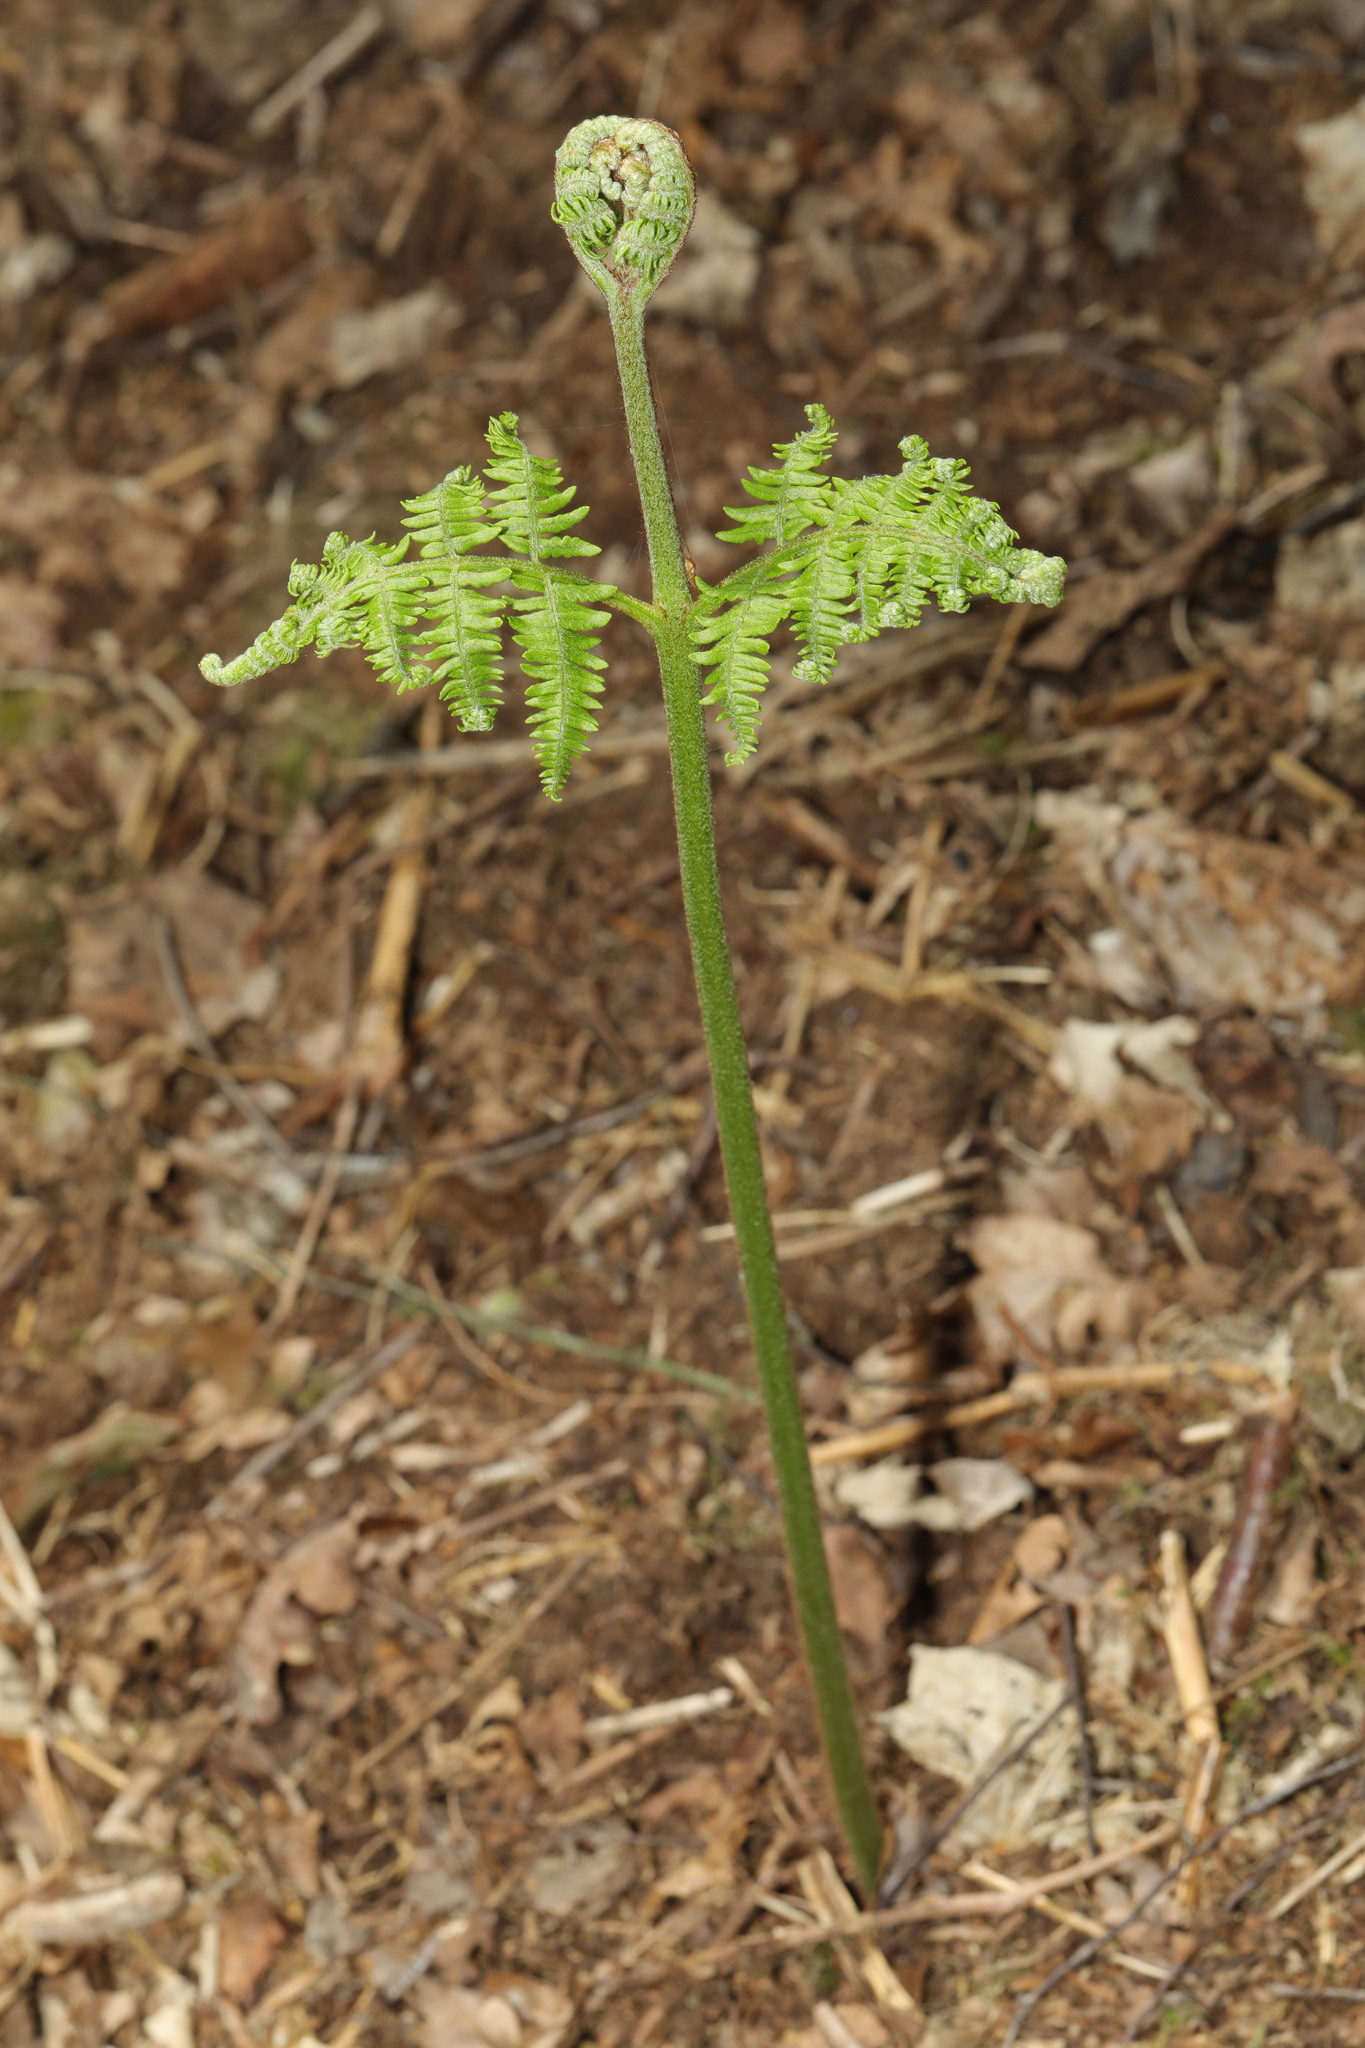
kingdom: Plantae
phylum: Tracheophyta
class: Polypodiopsida
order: Polypodiales
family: Dennstaedtiaceae
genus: Pteridium
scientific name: Pteridium aquilinum
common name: Bracken
